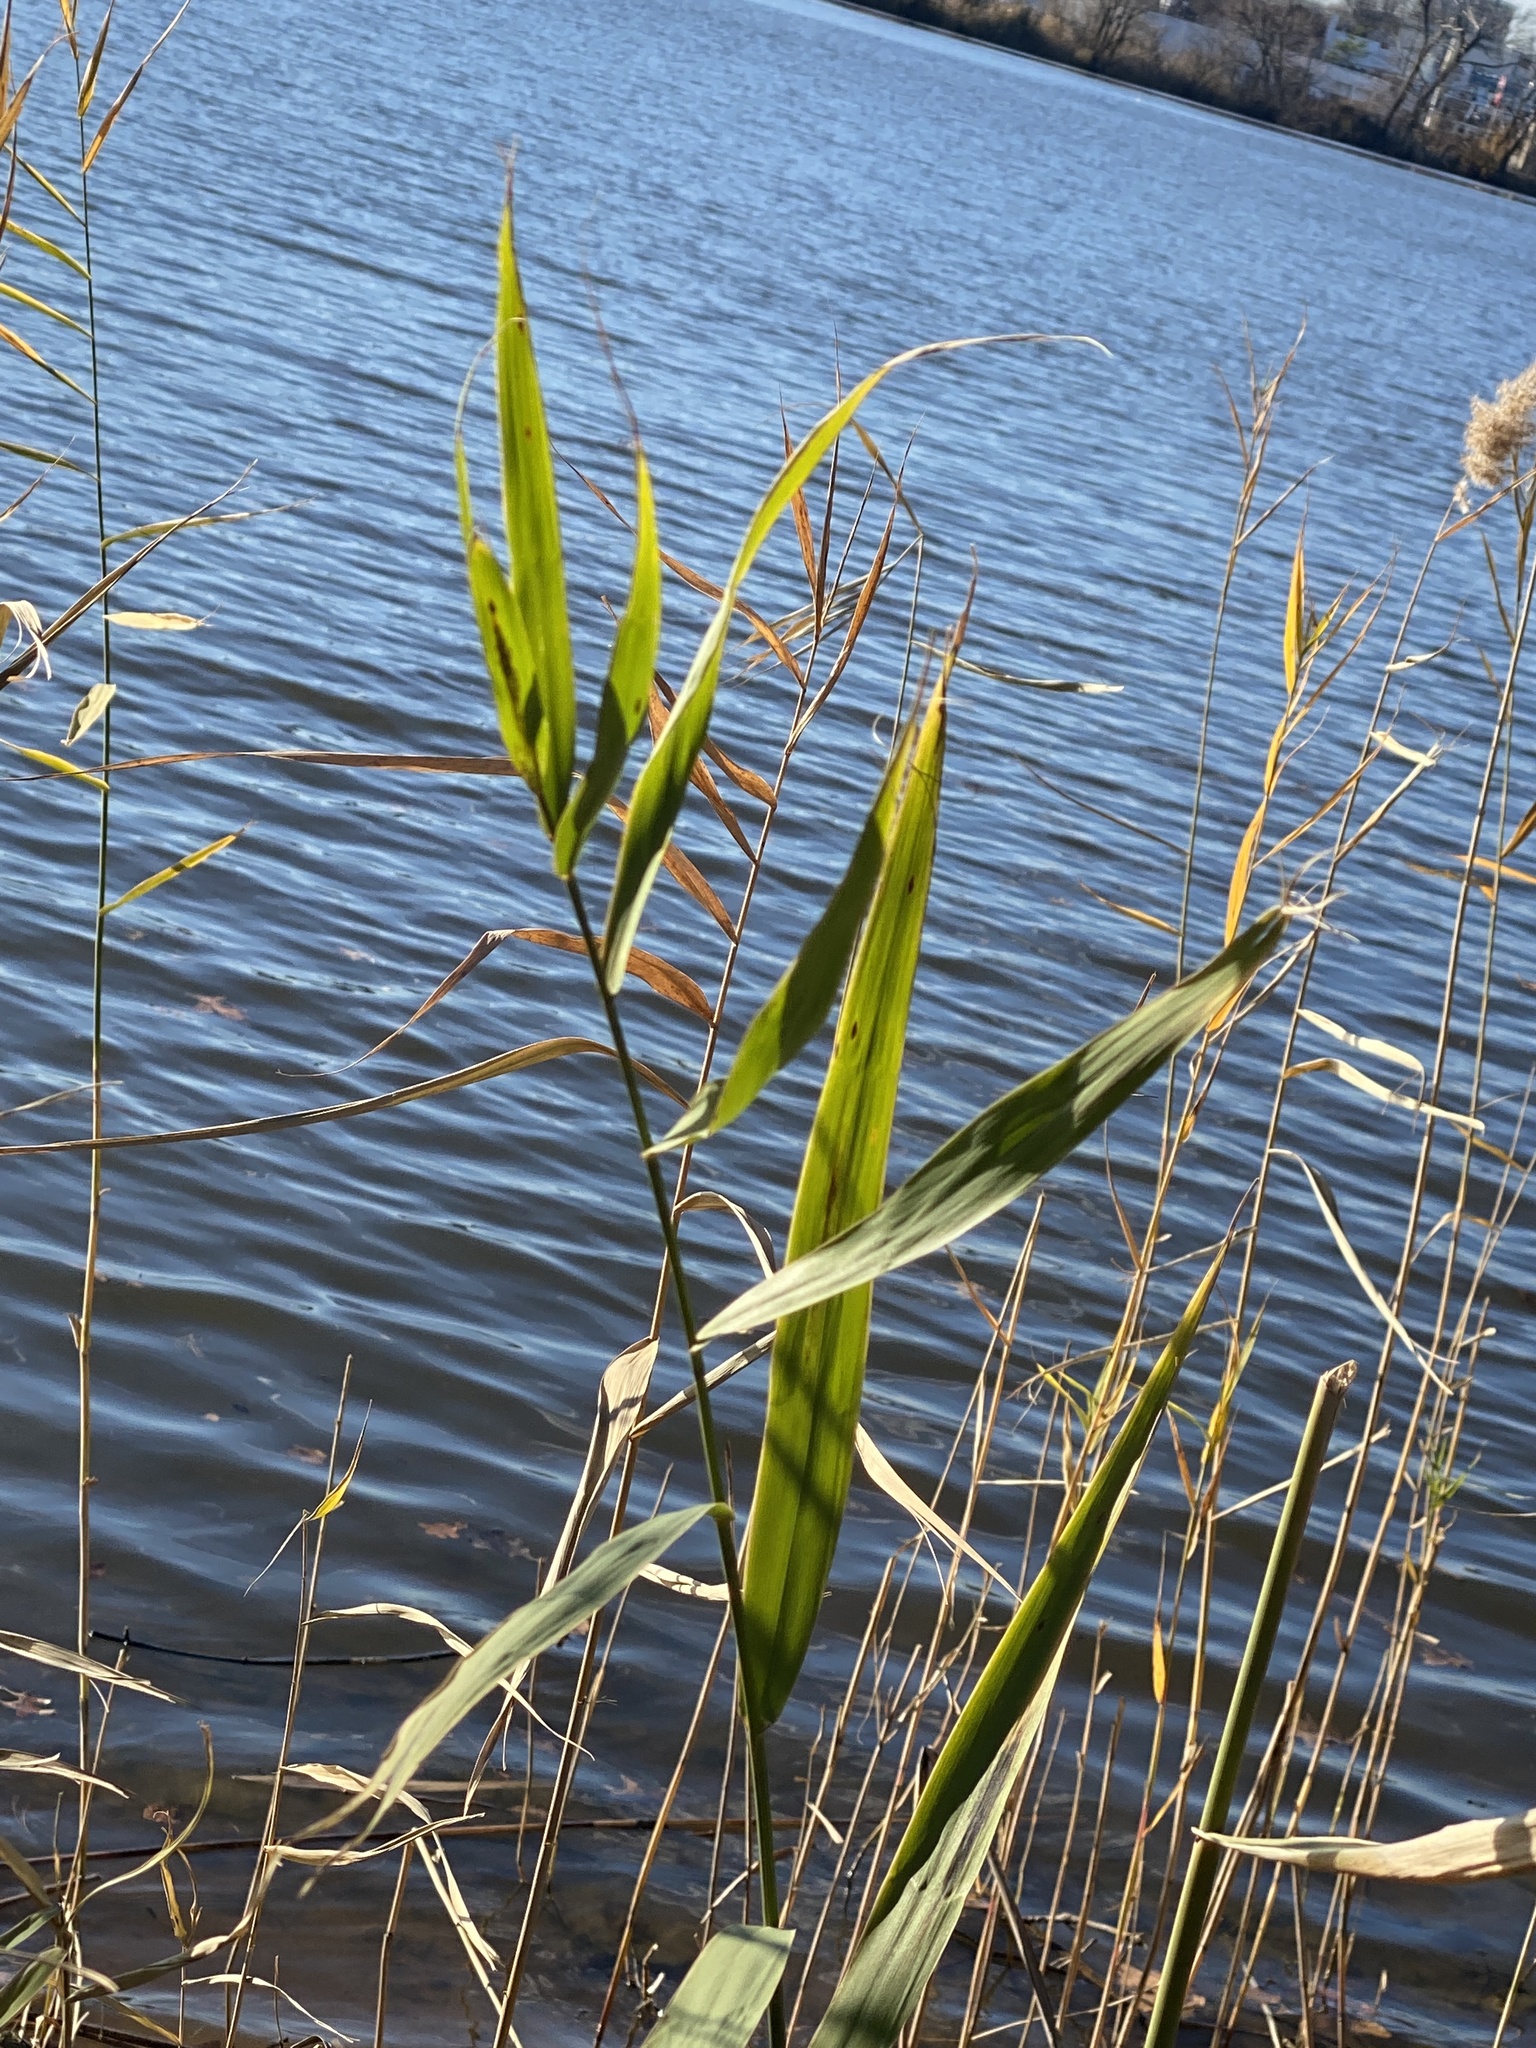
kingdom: Plantae
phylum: Tracheophyta
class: Liliopsida
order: Poales
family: Poaceae
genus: Phragmites
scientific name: Phragmites australis
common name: Common reed
